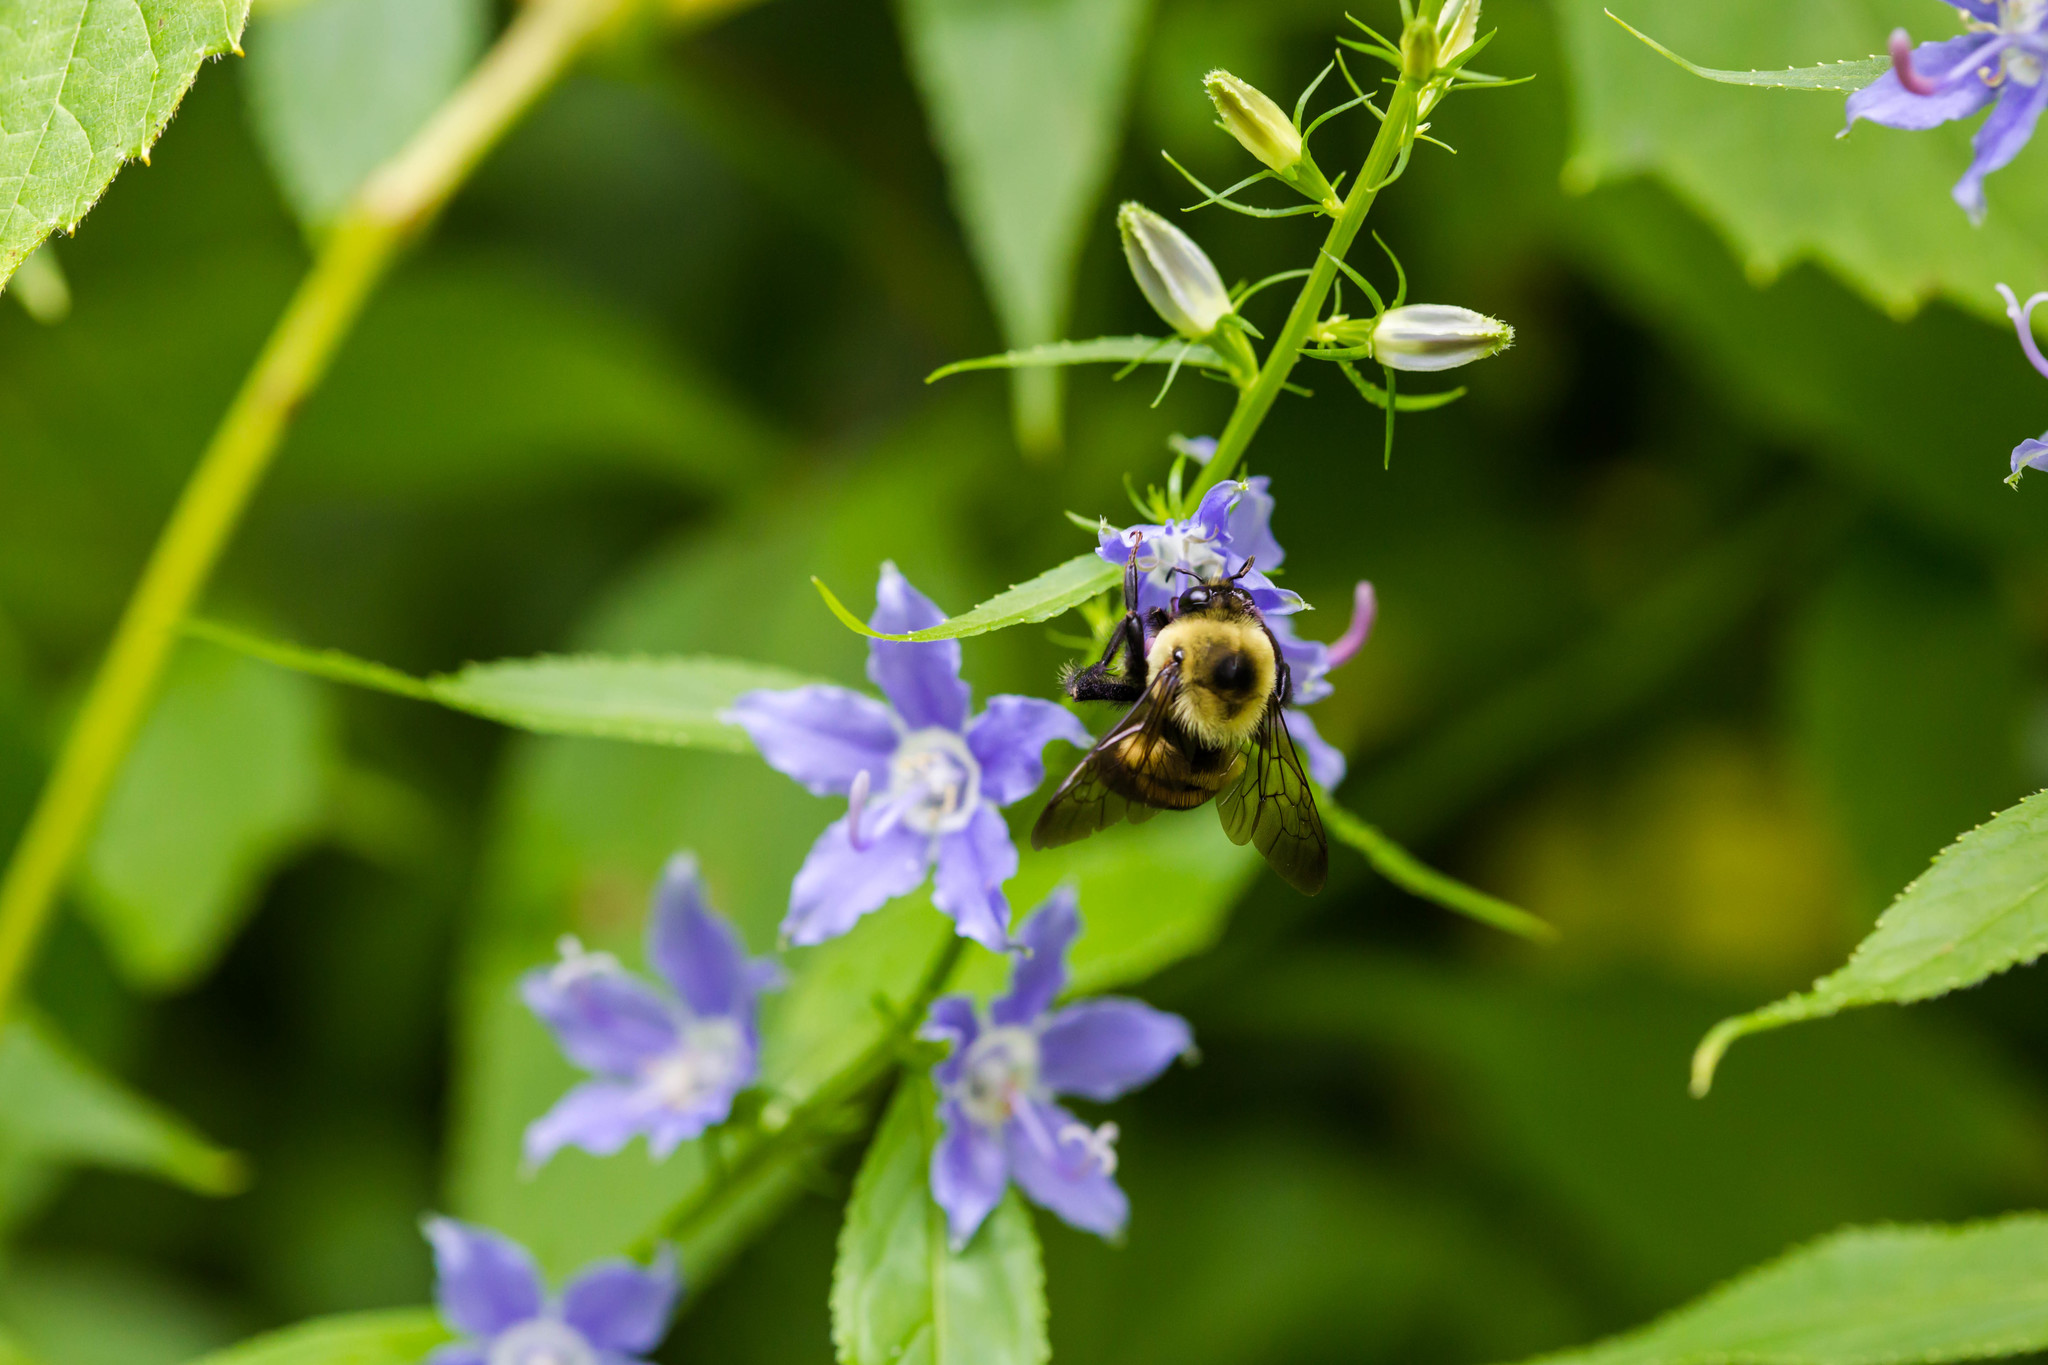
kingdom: Animalia
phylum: Arthropoda
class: Insecta
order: Hymenoptera
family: Apidae
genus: Bombus
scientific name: Bombus griseocollis
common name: Brown-belted bumble bee
